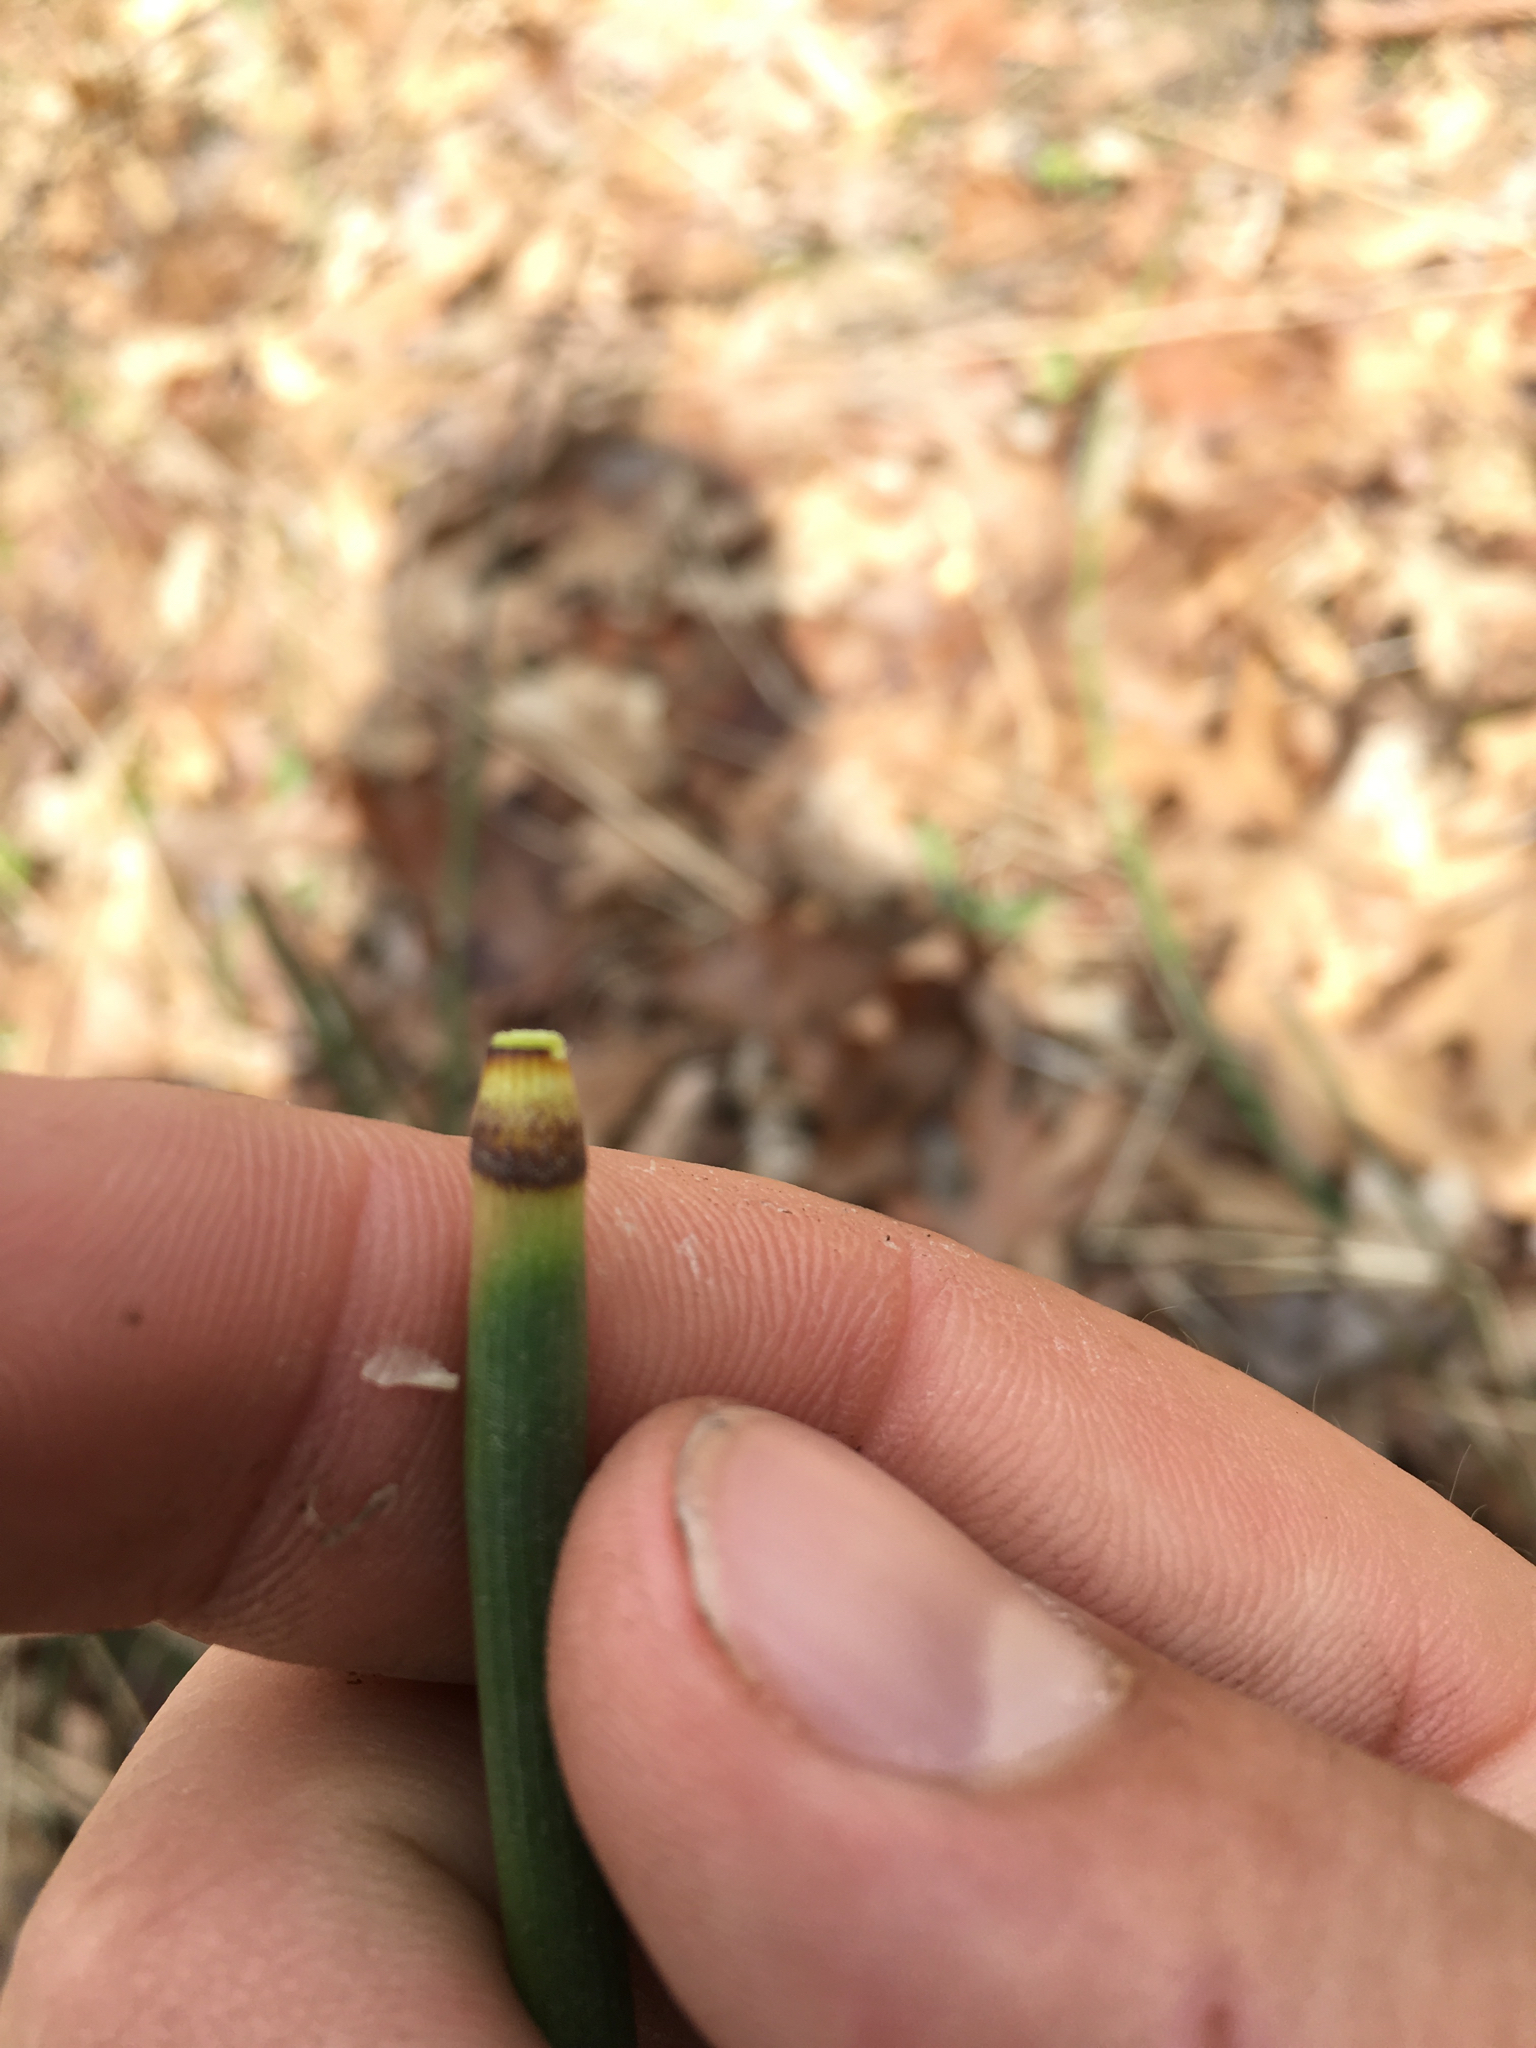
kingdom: Plantae
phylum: Tracheophyta
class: Polypodiopsida
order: Equisetales
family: Equisetaceae
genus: Equisetum
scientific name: Equisetum hyemale
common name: Rough horsetail
